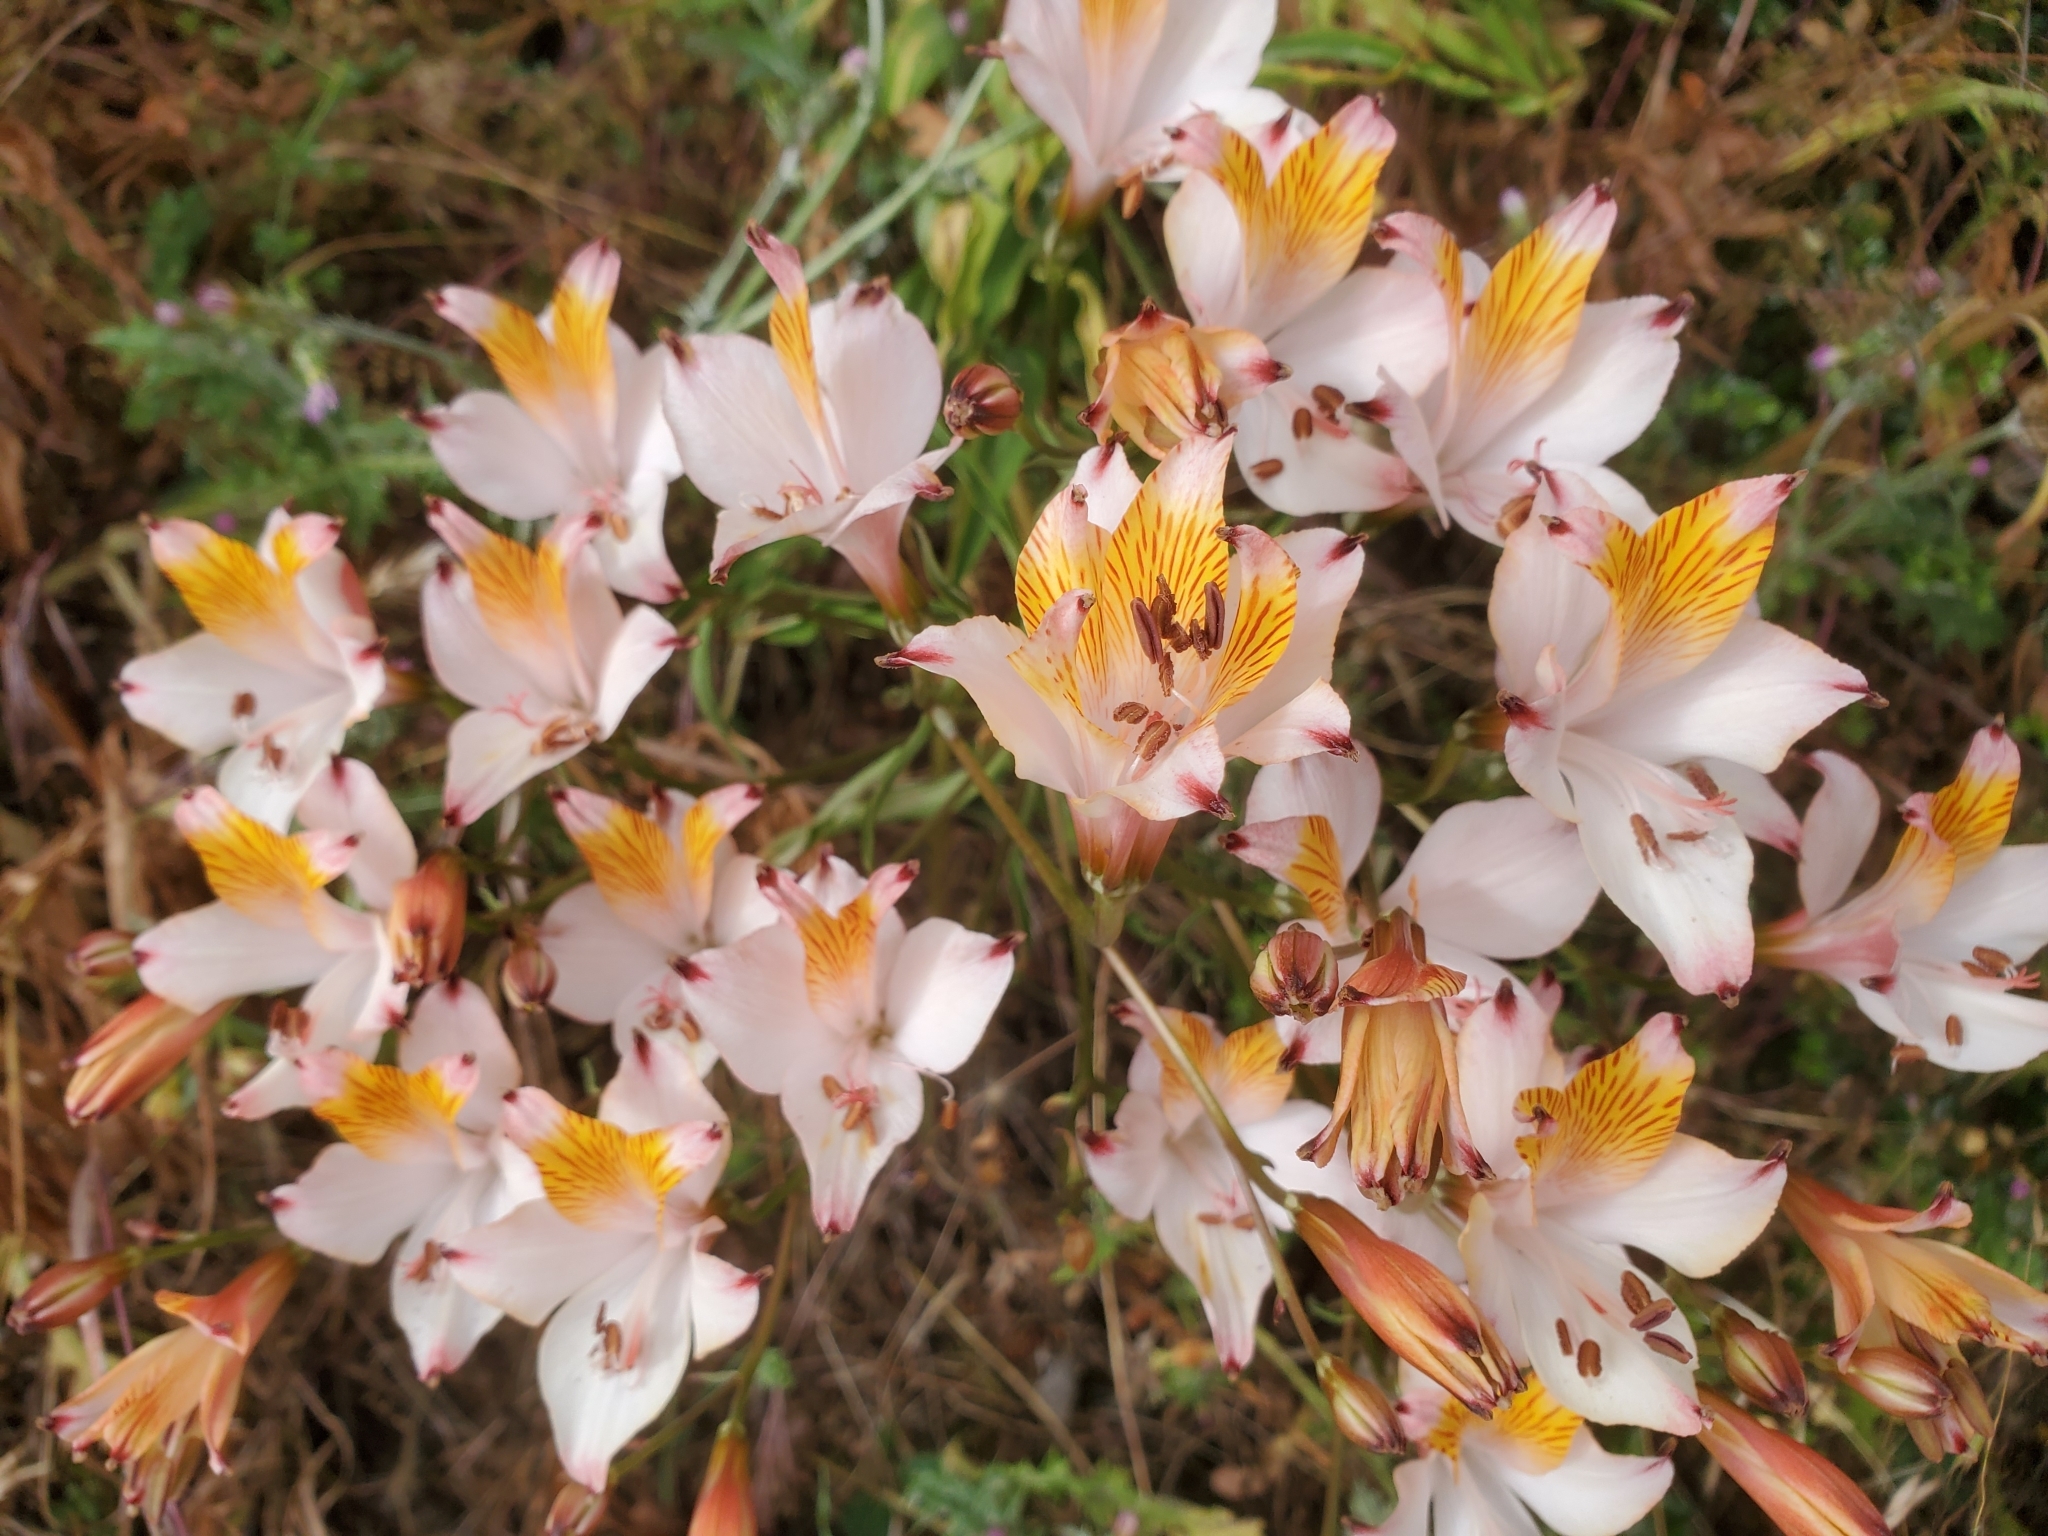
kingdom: Plantae
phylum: Tracheophyta
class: Liliopsida
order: Liliales
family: Alstroemeriaceae
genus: Alstroemeria
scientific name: Alstroemeria
